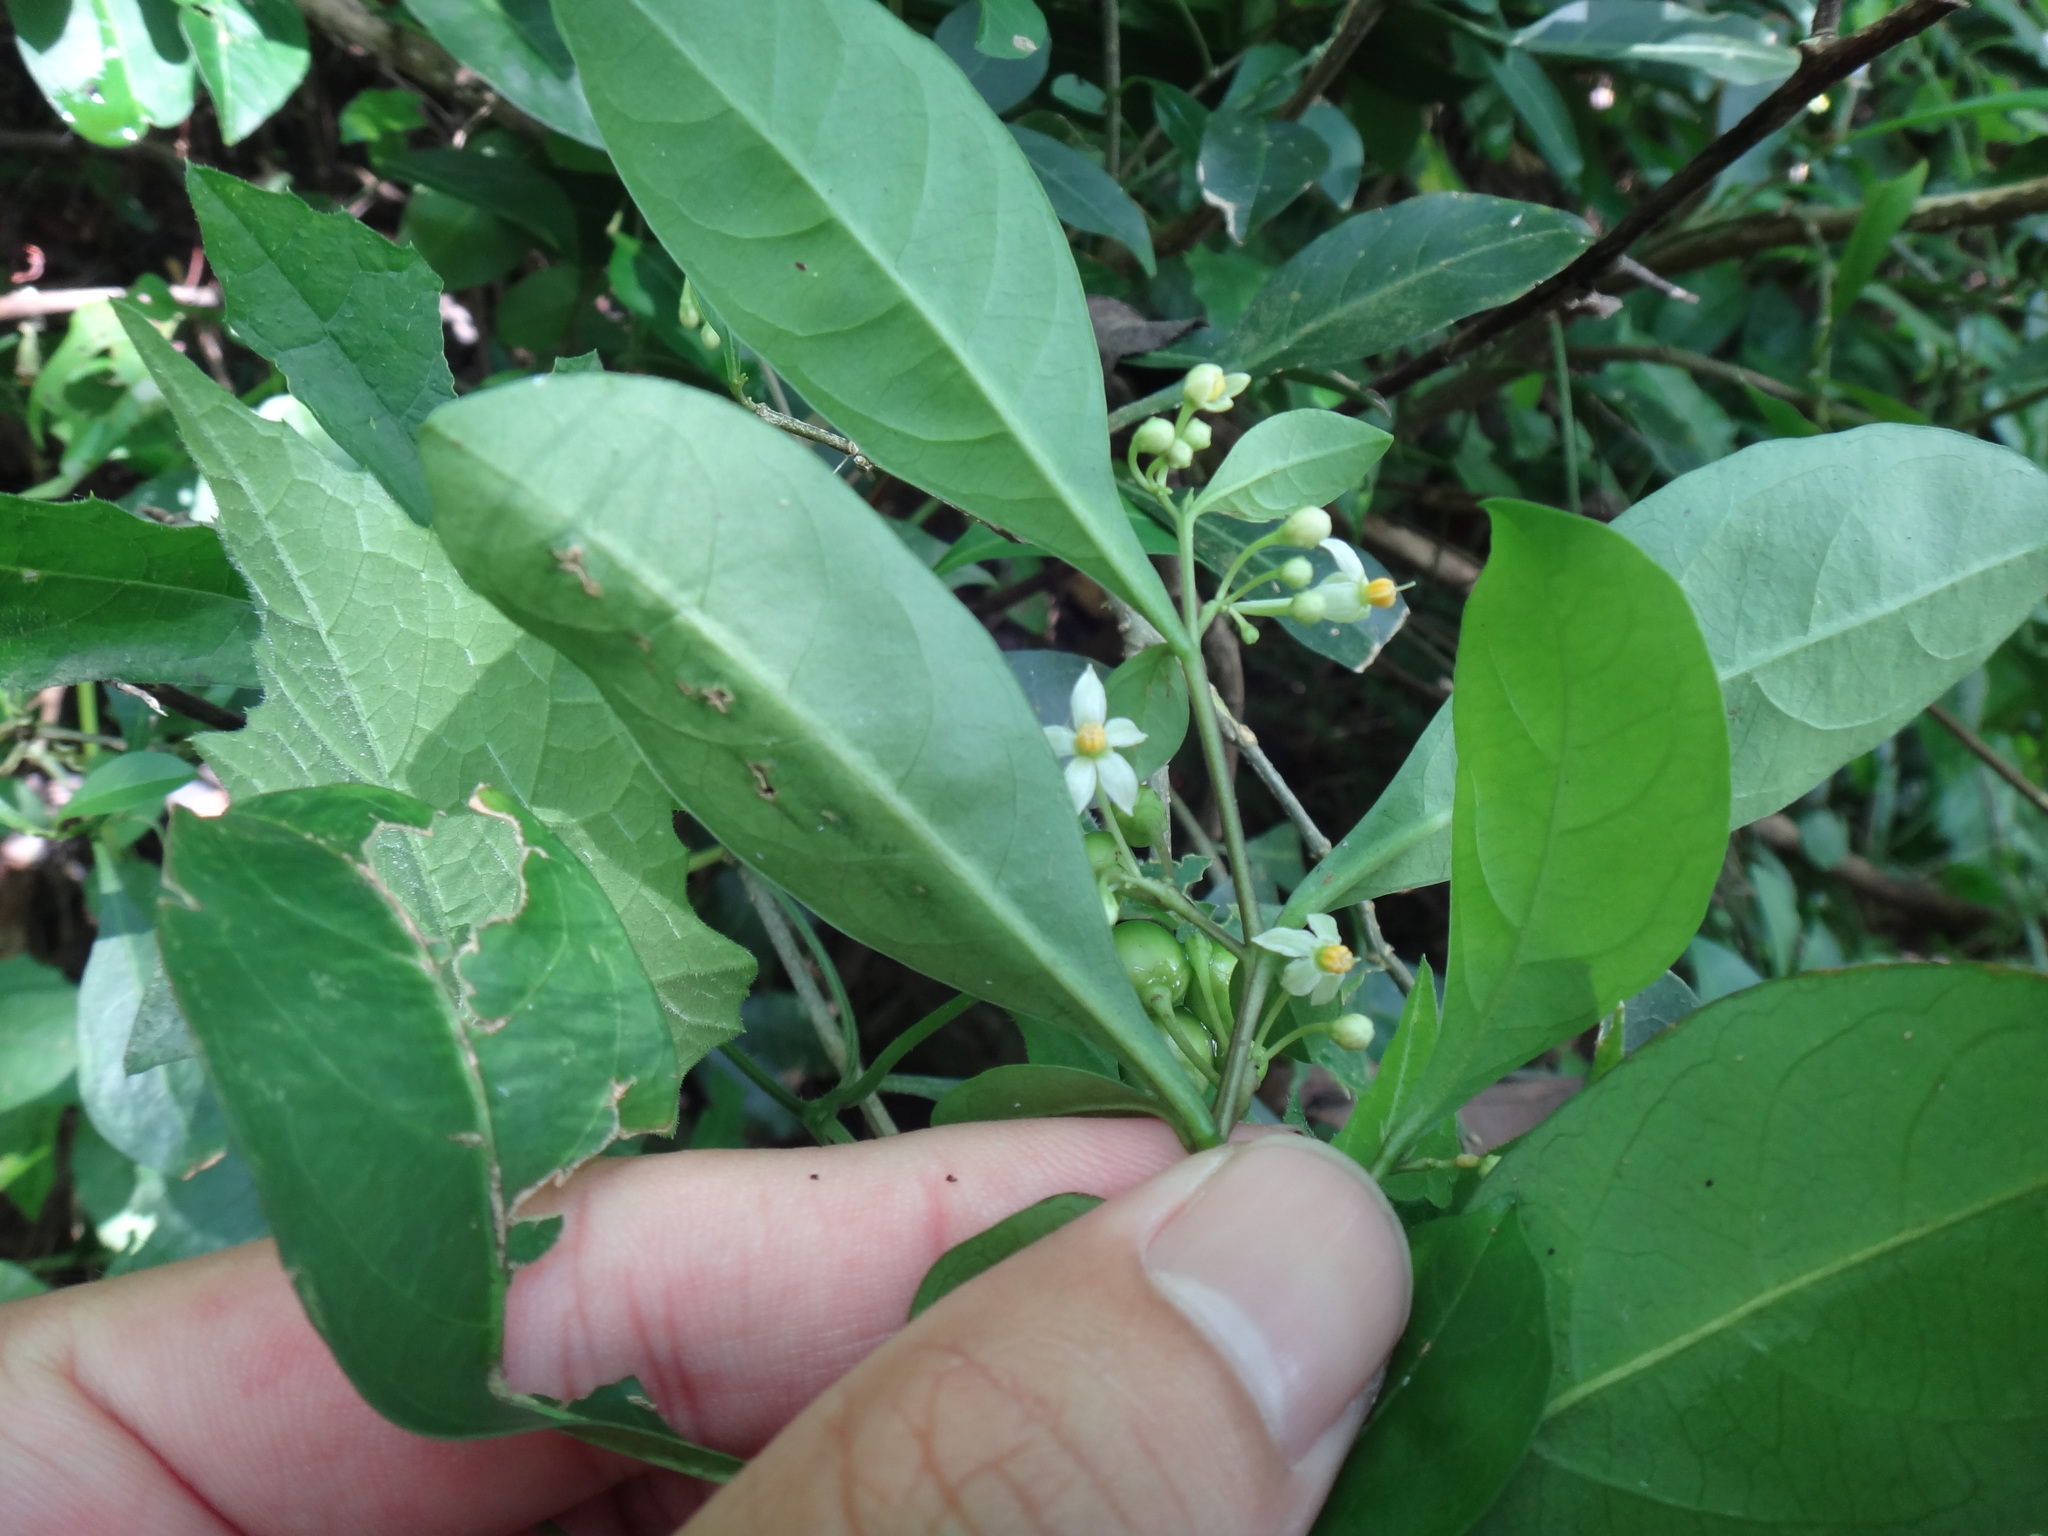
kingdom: Plantae
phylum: Tracheophyta
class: Magnoliopsida
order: Solanales
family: Solanaceae
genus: Solanum
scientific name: Solanum diphyllum
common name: Twoleaf nightshade
